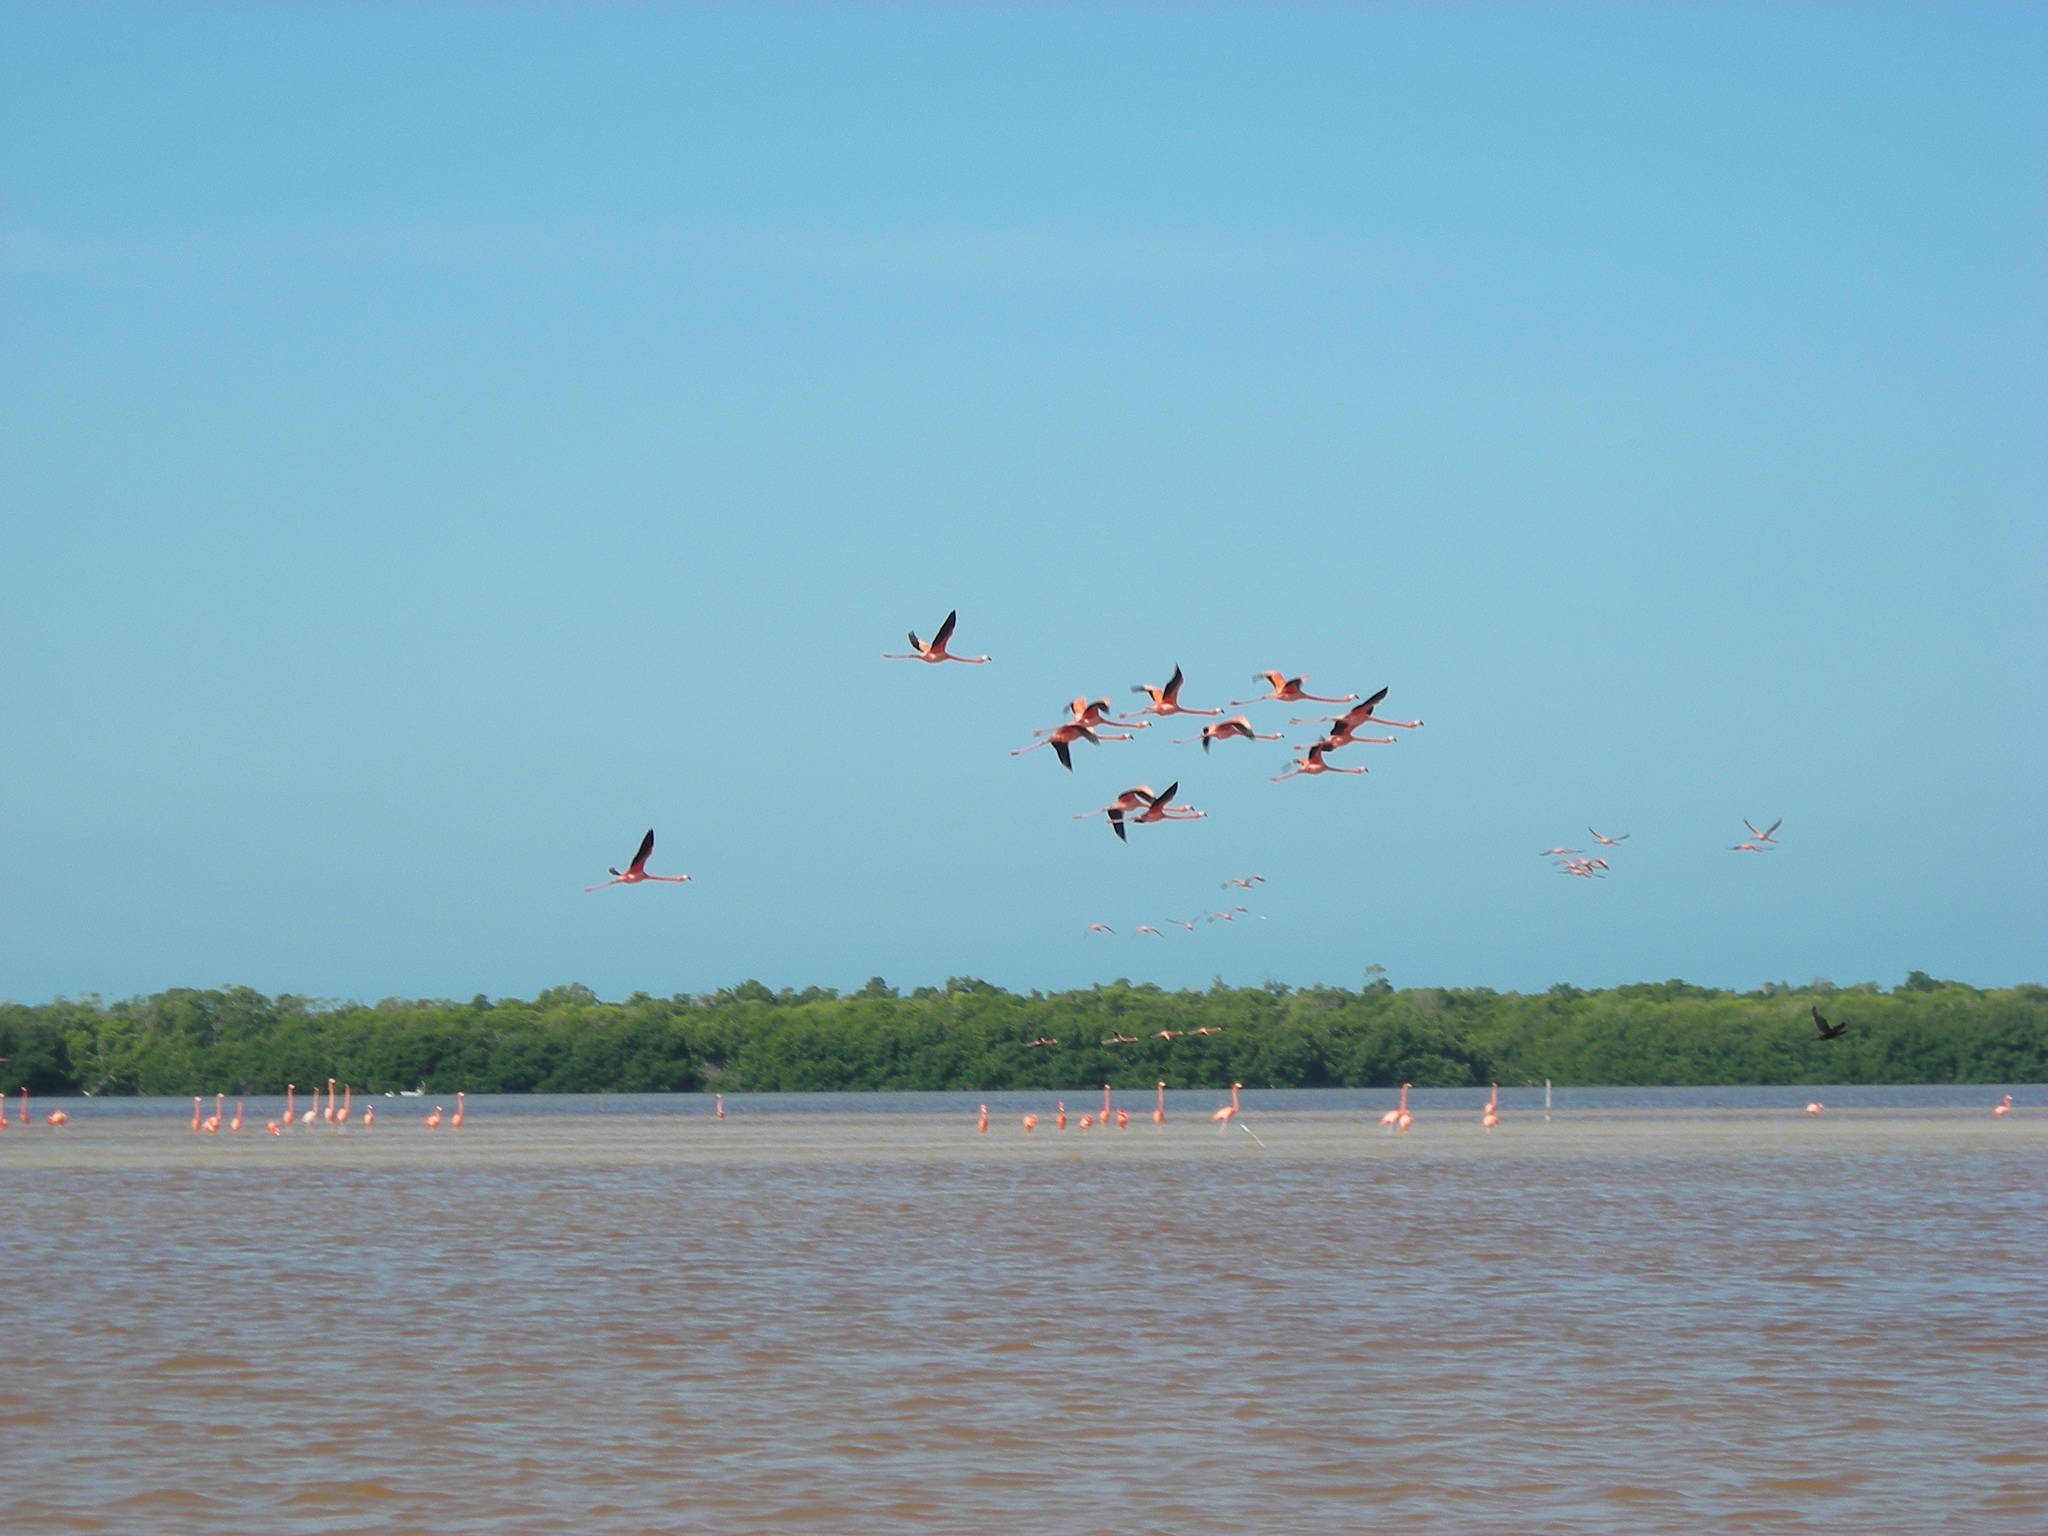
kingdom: Animalia
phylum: Chordata
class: Aves
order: Phoenicopteriformes
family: Phoenicopteridae
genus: Phoenicopterus
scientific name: Phoenicopterus ruber
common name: American flamingo
